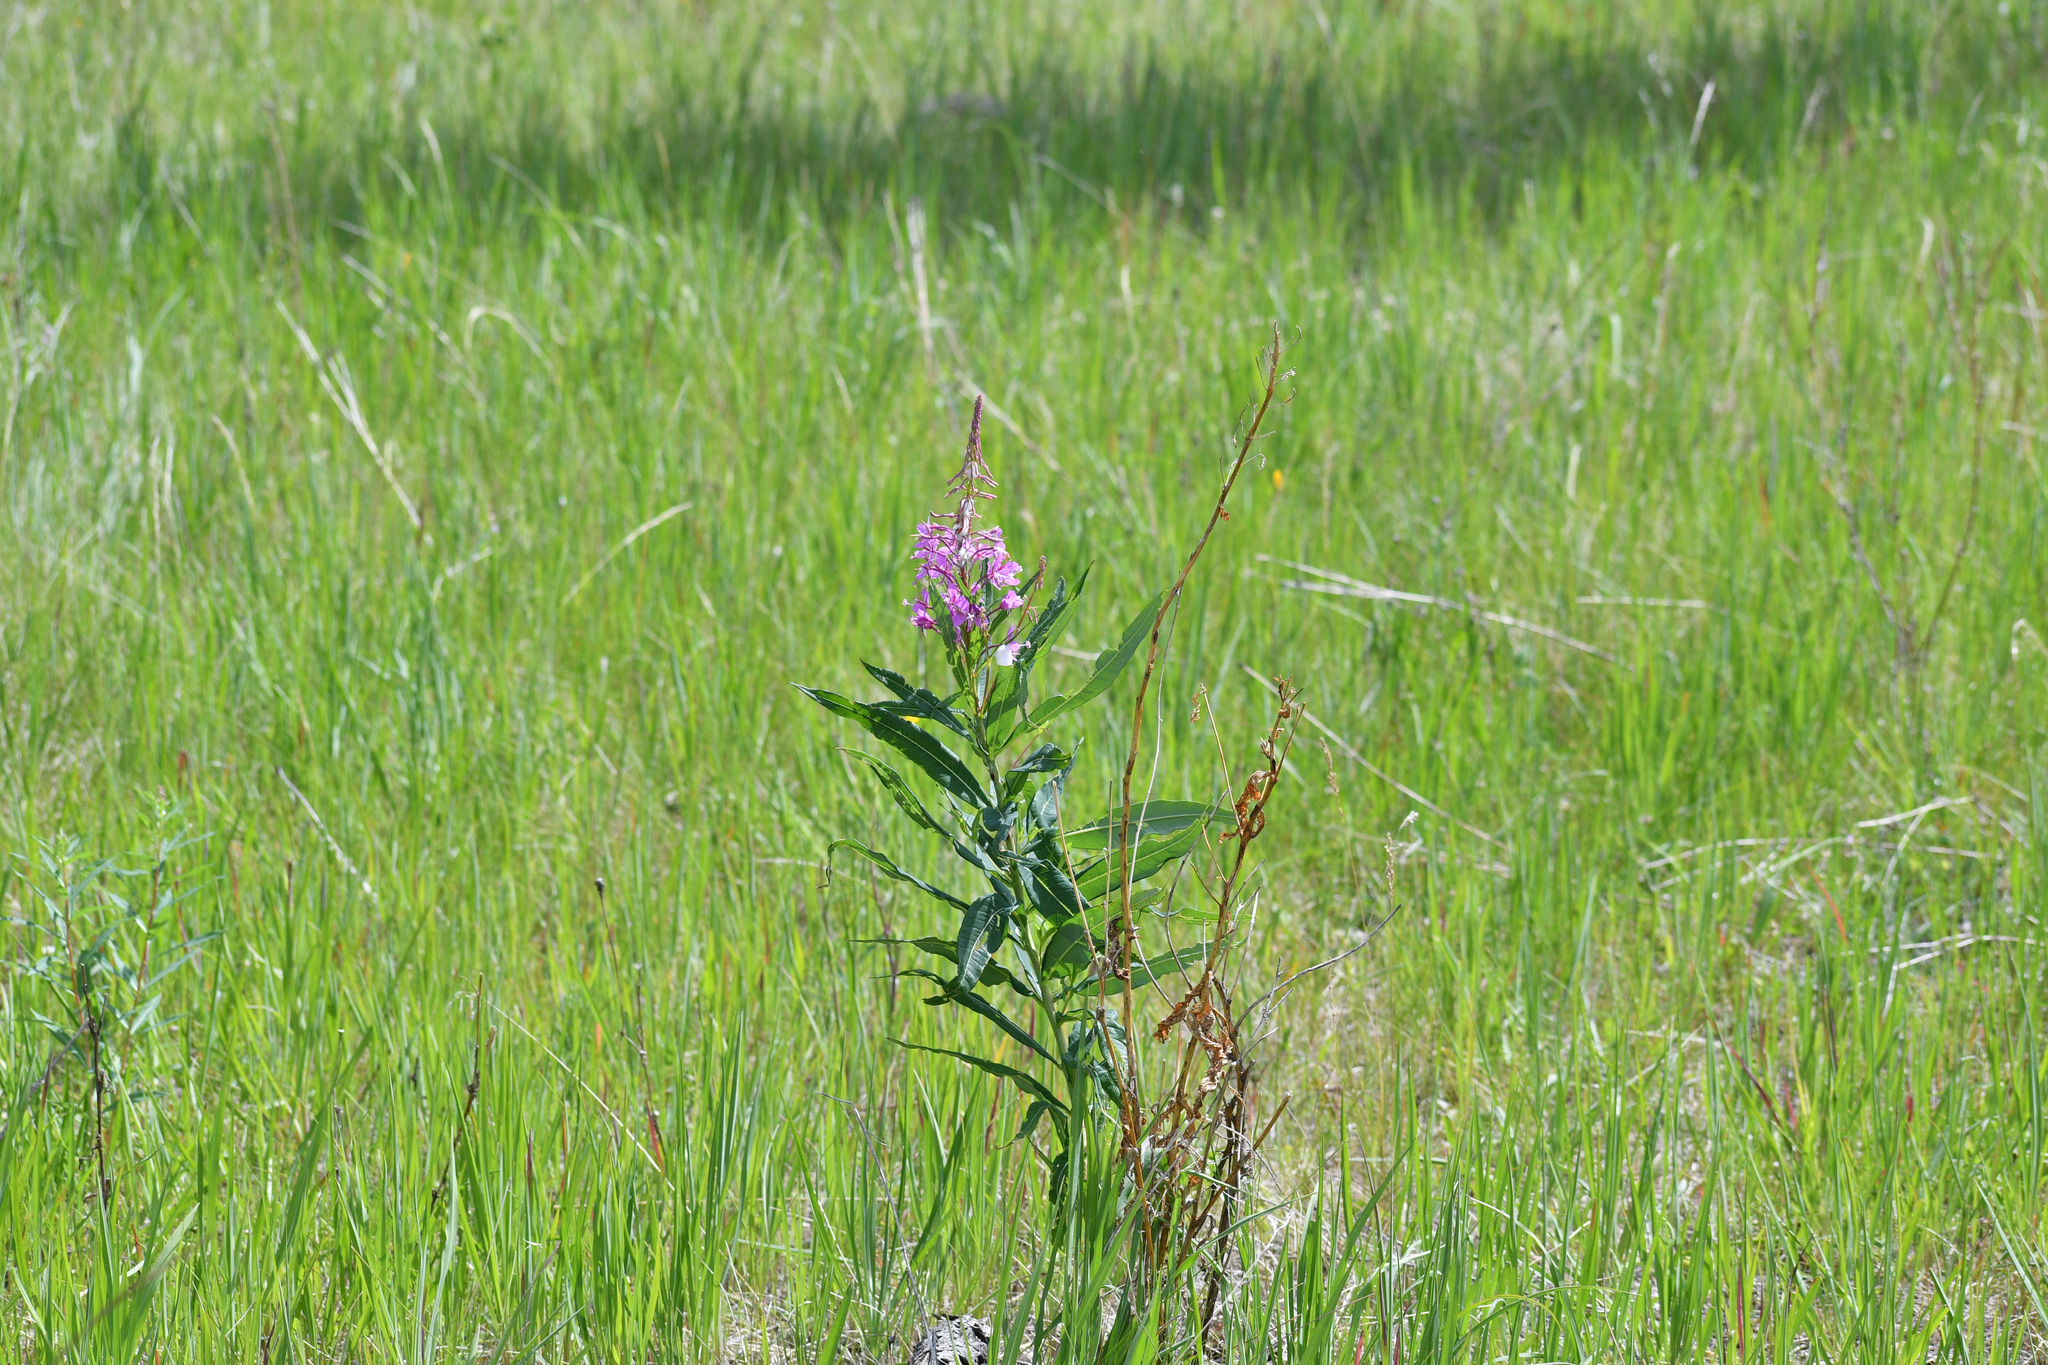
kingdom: Plantae
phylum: Tracheophyta
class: Magnoliopsida
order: Myrtales
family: Onagraceae
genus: Chamaenerion
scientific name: Chamaenerion angustifolium
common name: Fireweed
